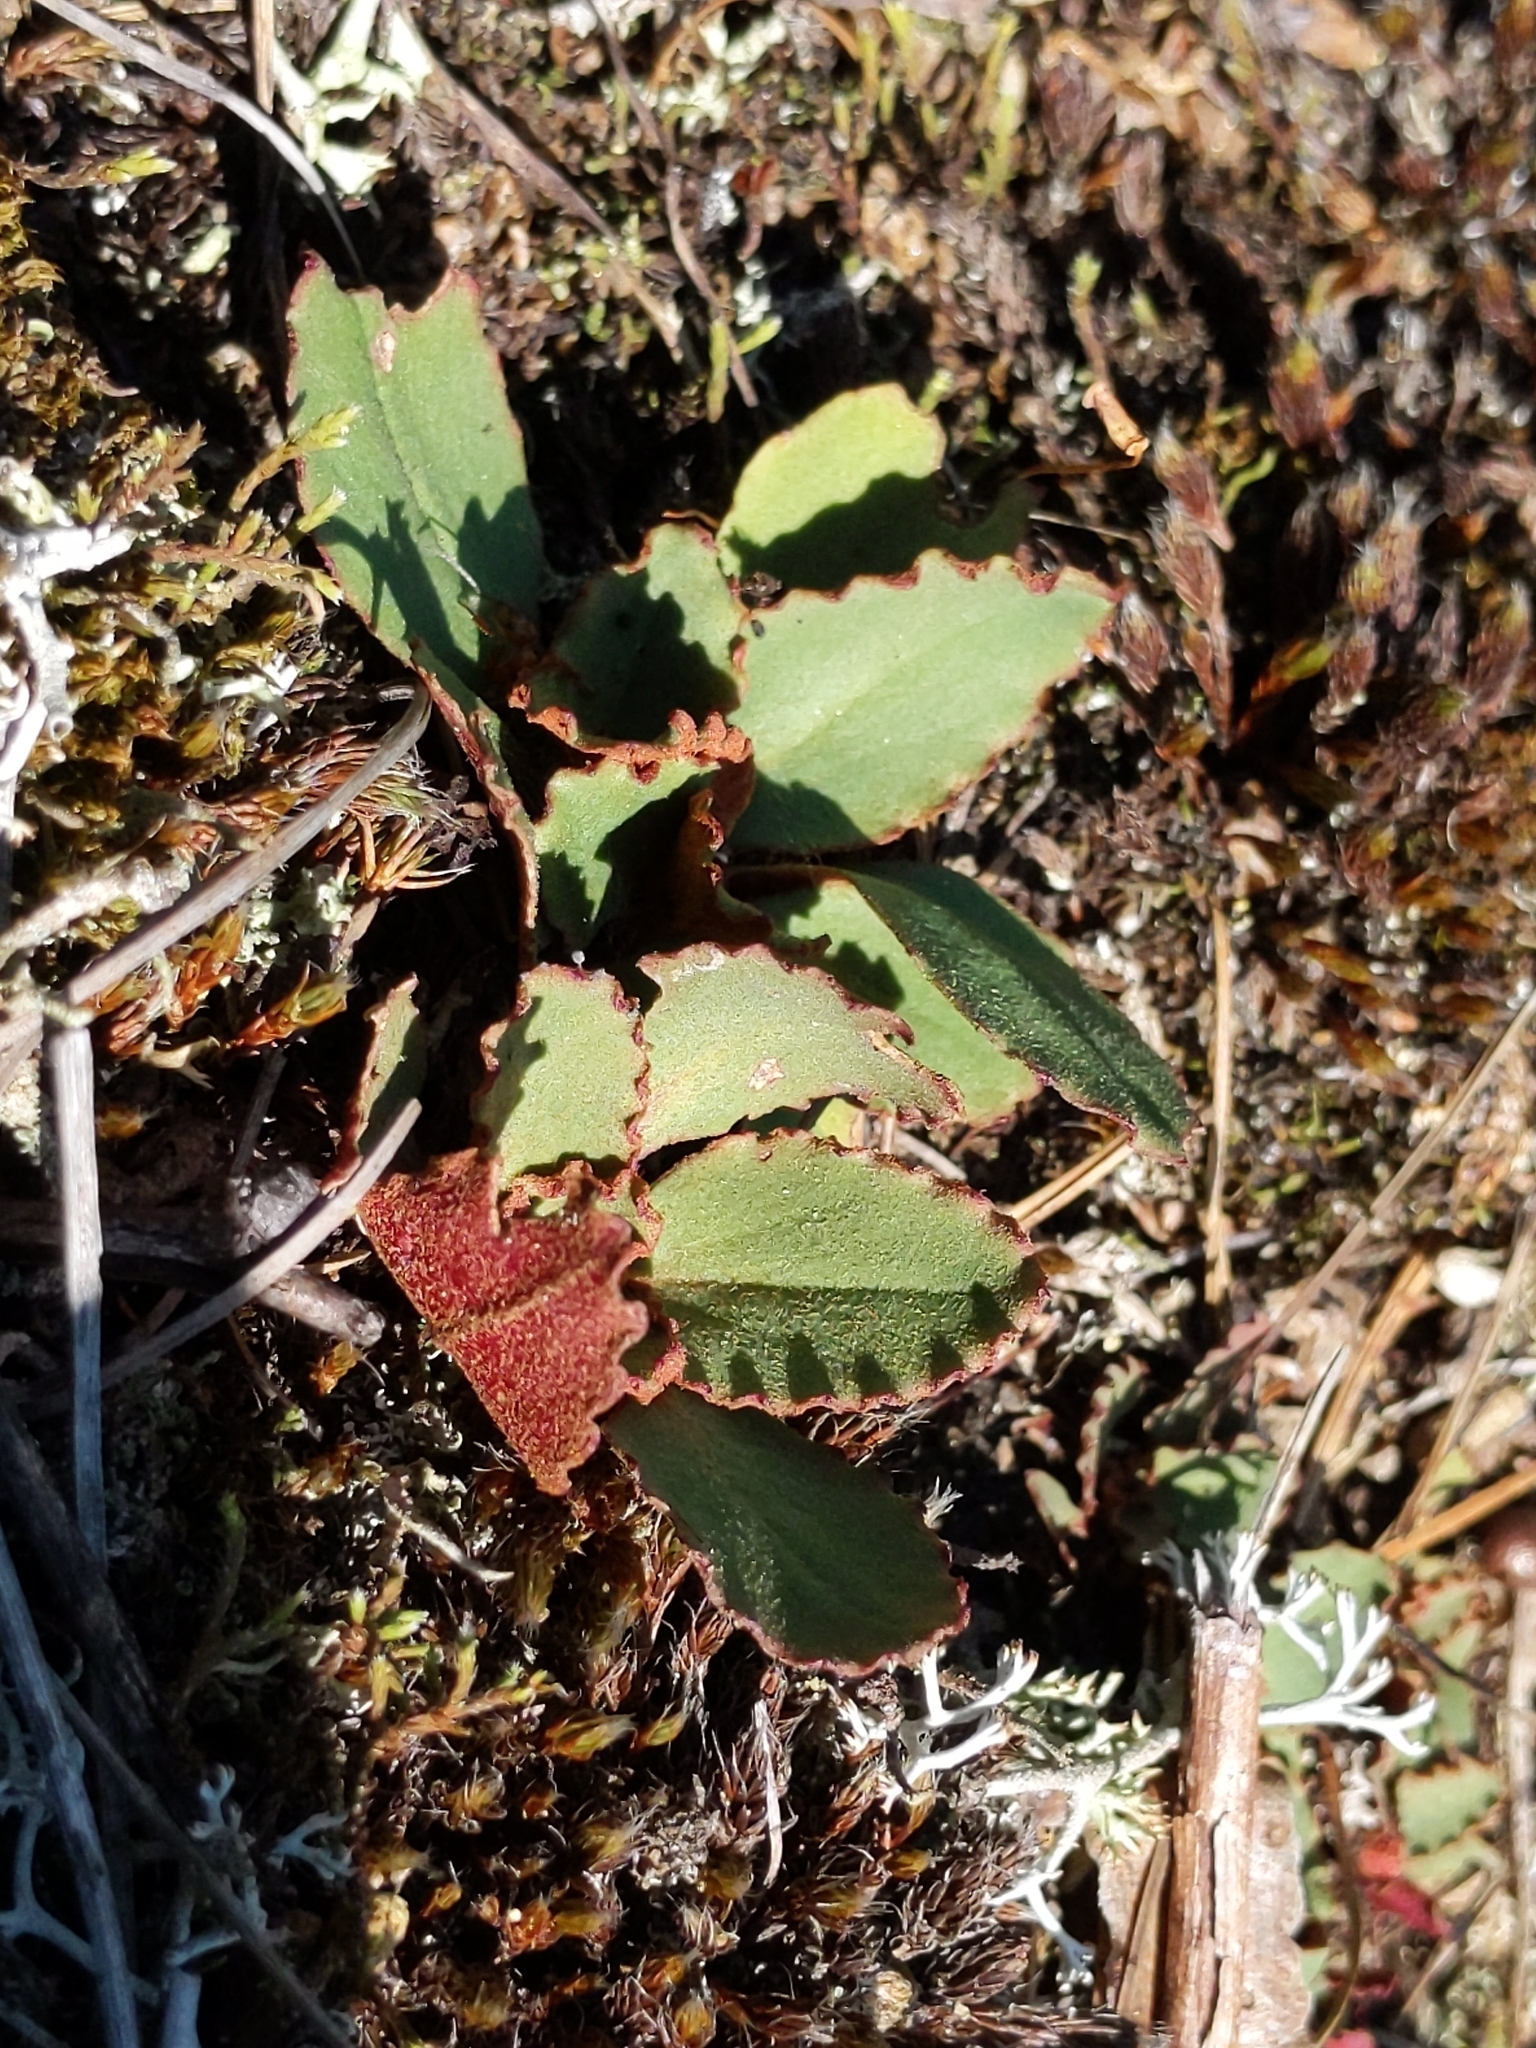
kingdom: Plantae
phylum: Tracheophyta
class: Magnoliopsida
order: Saxifragales
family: Saxifragaceae
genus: Micranthes
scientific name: Micranthes virginiensis
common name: Early saxifrage
